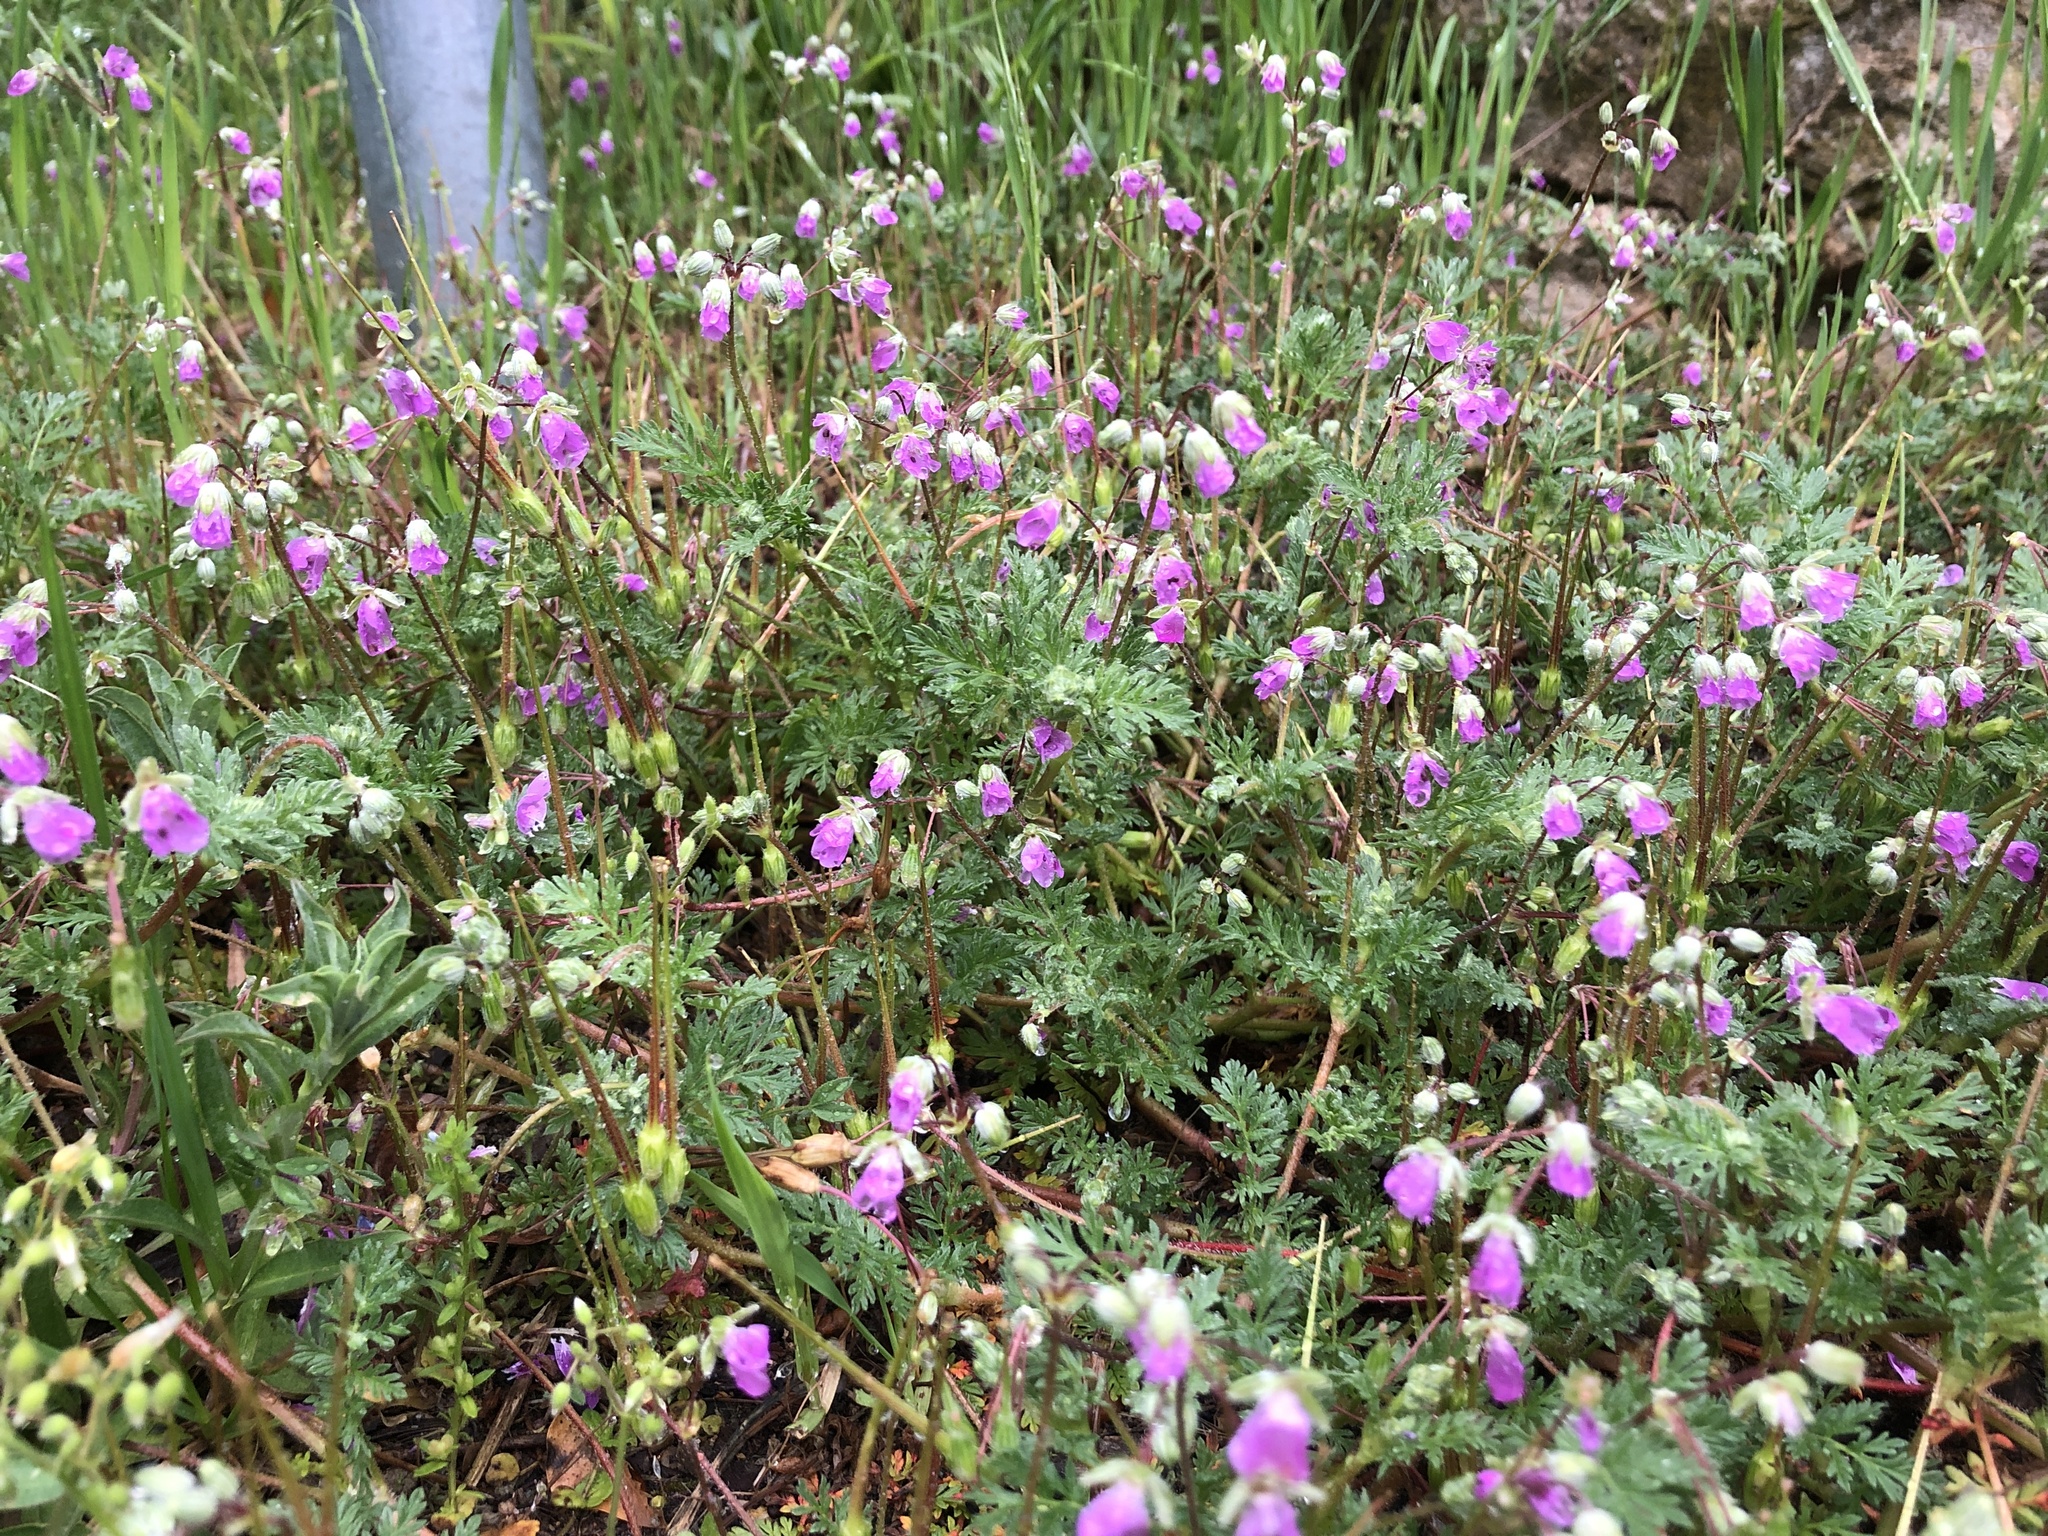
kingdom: Plantae
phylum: Tracheophyta
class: Magnoliopsida
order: Geraniales
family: Geraniaceae
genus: Erodium
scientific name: Erodium cicutarium
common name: Common stork's-bill
